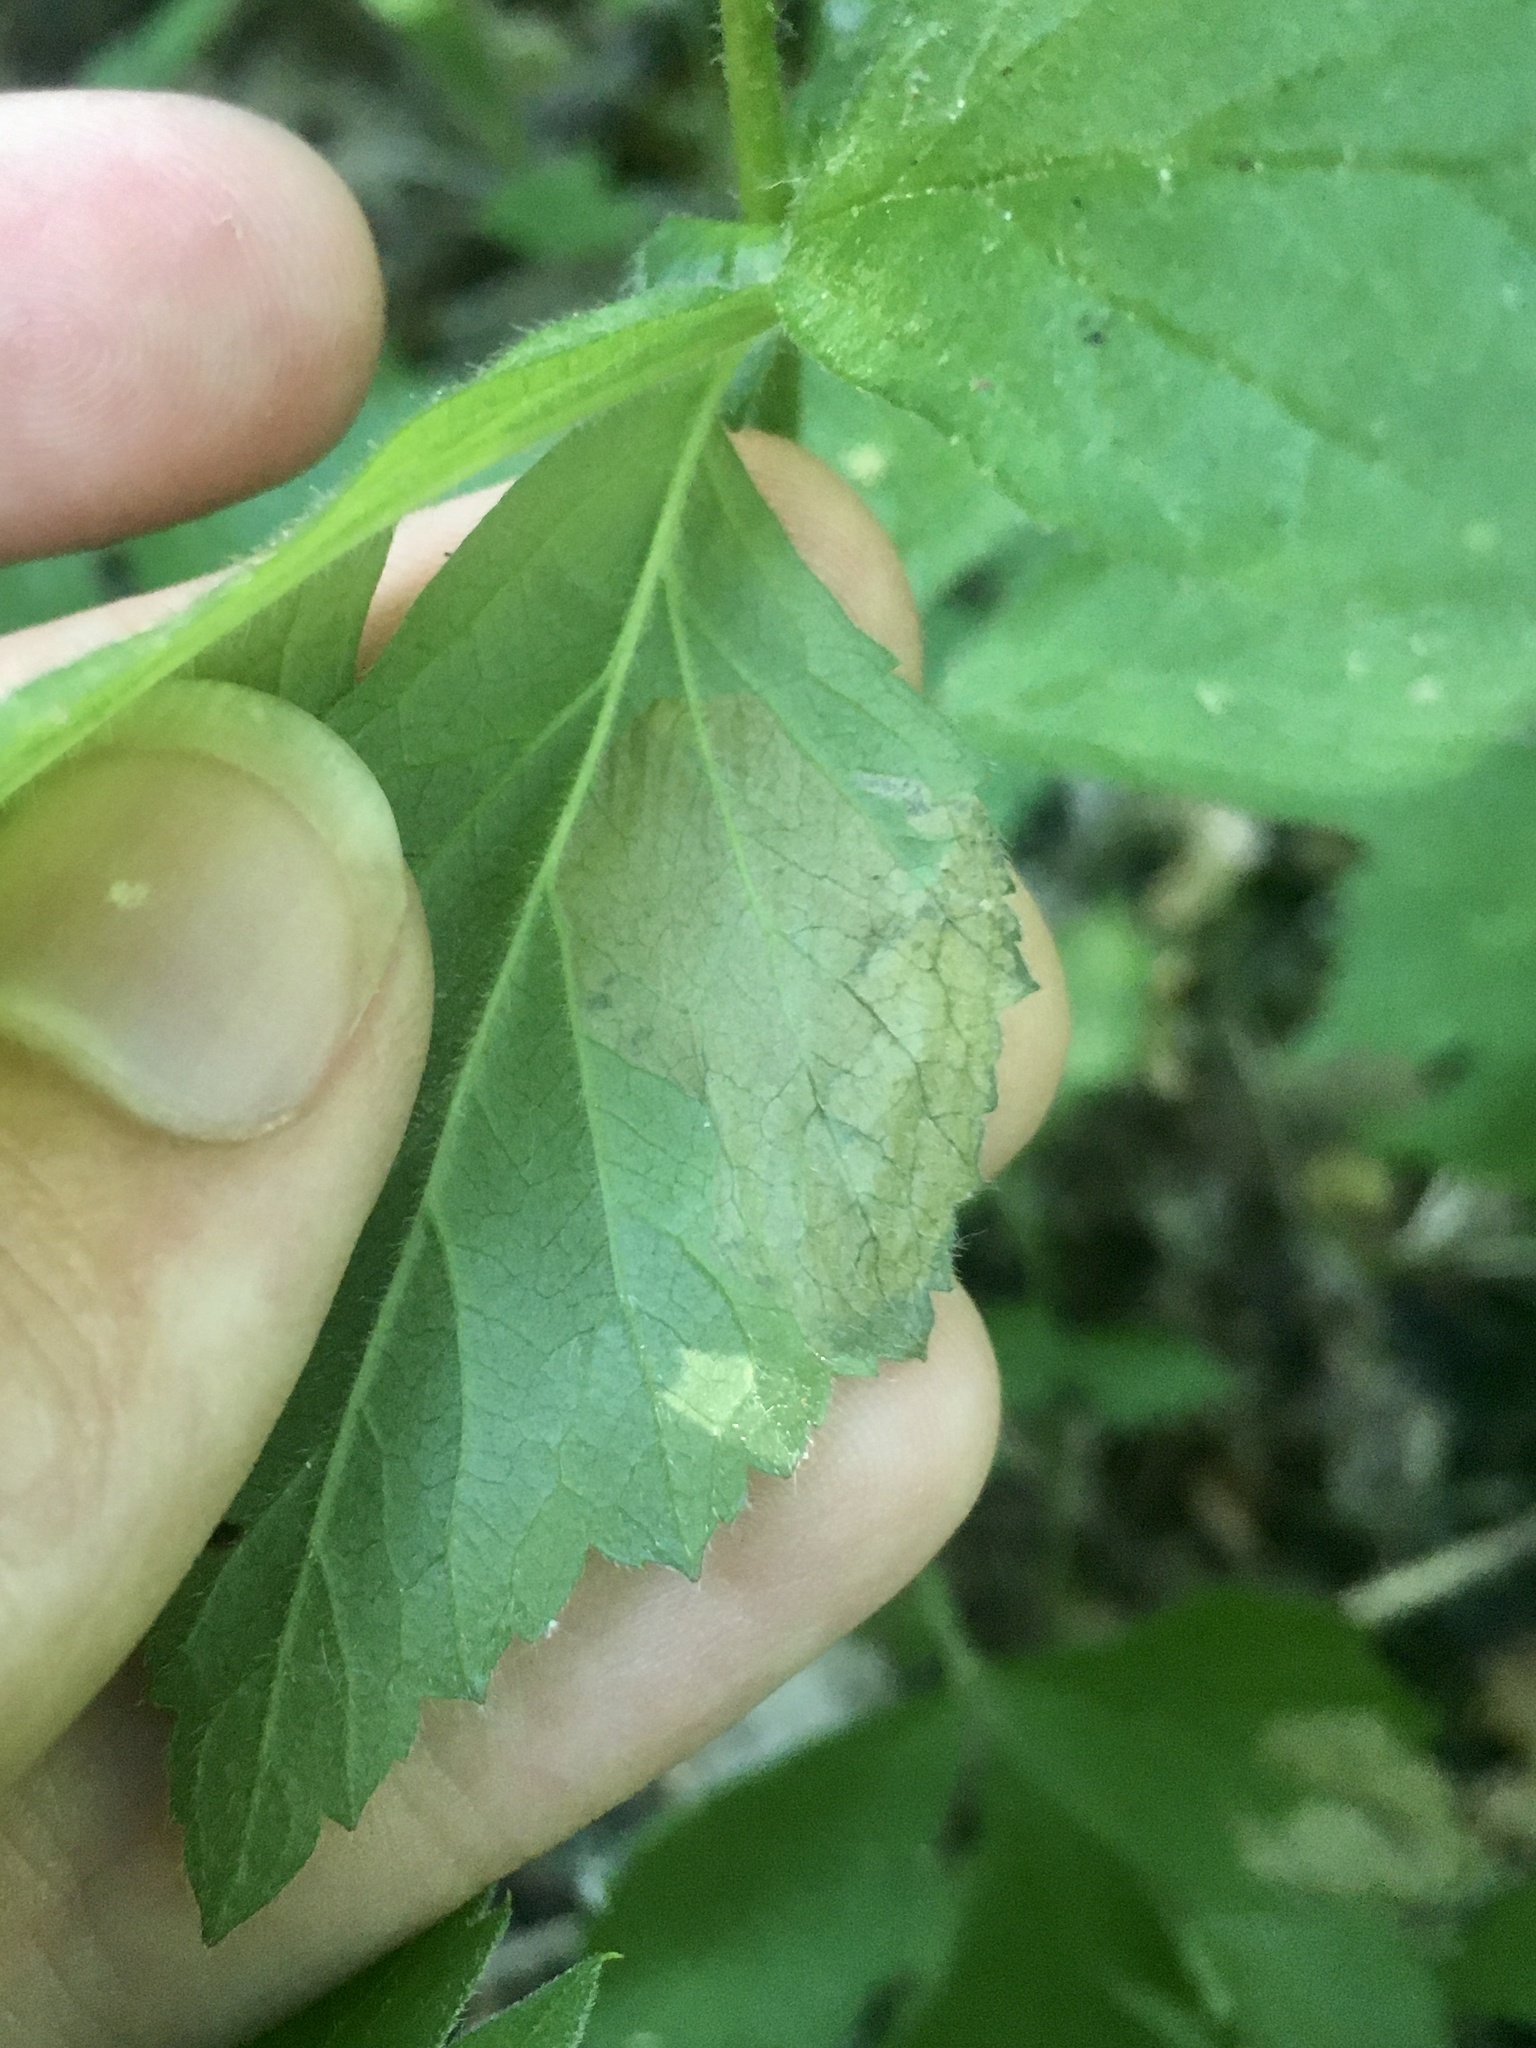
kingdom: Animalia
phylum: Arthropoda
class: Insecta
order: Hymenoptera
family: Tenthredinidae
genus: Metallus
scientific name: Metallus lanceolatus
